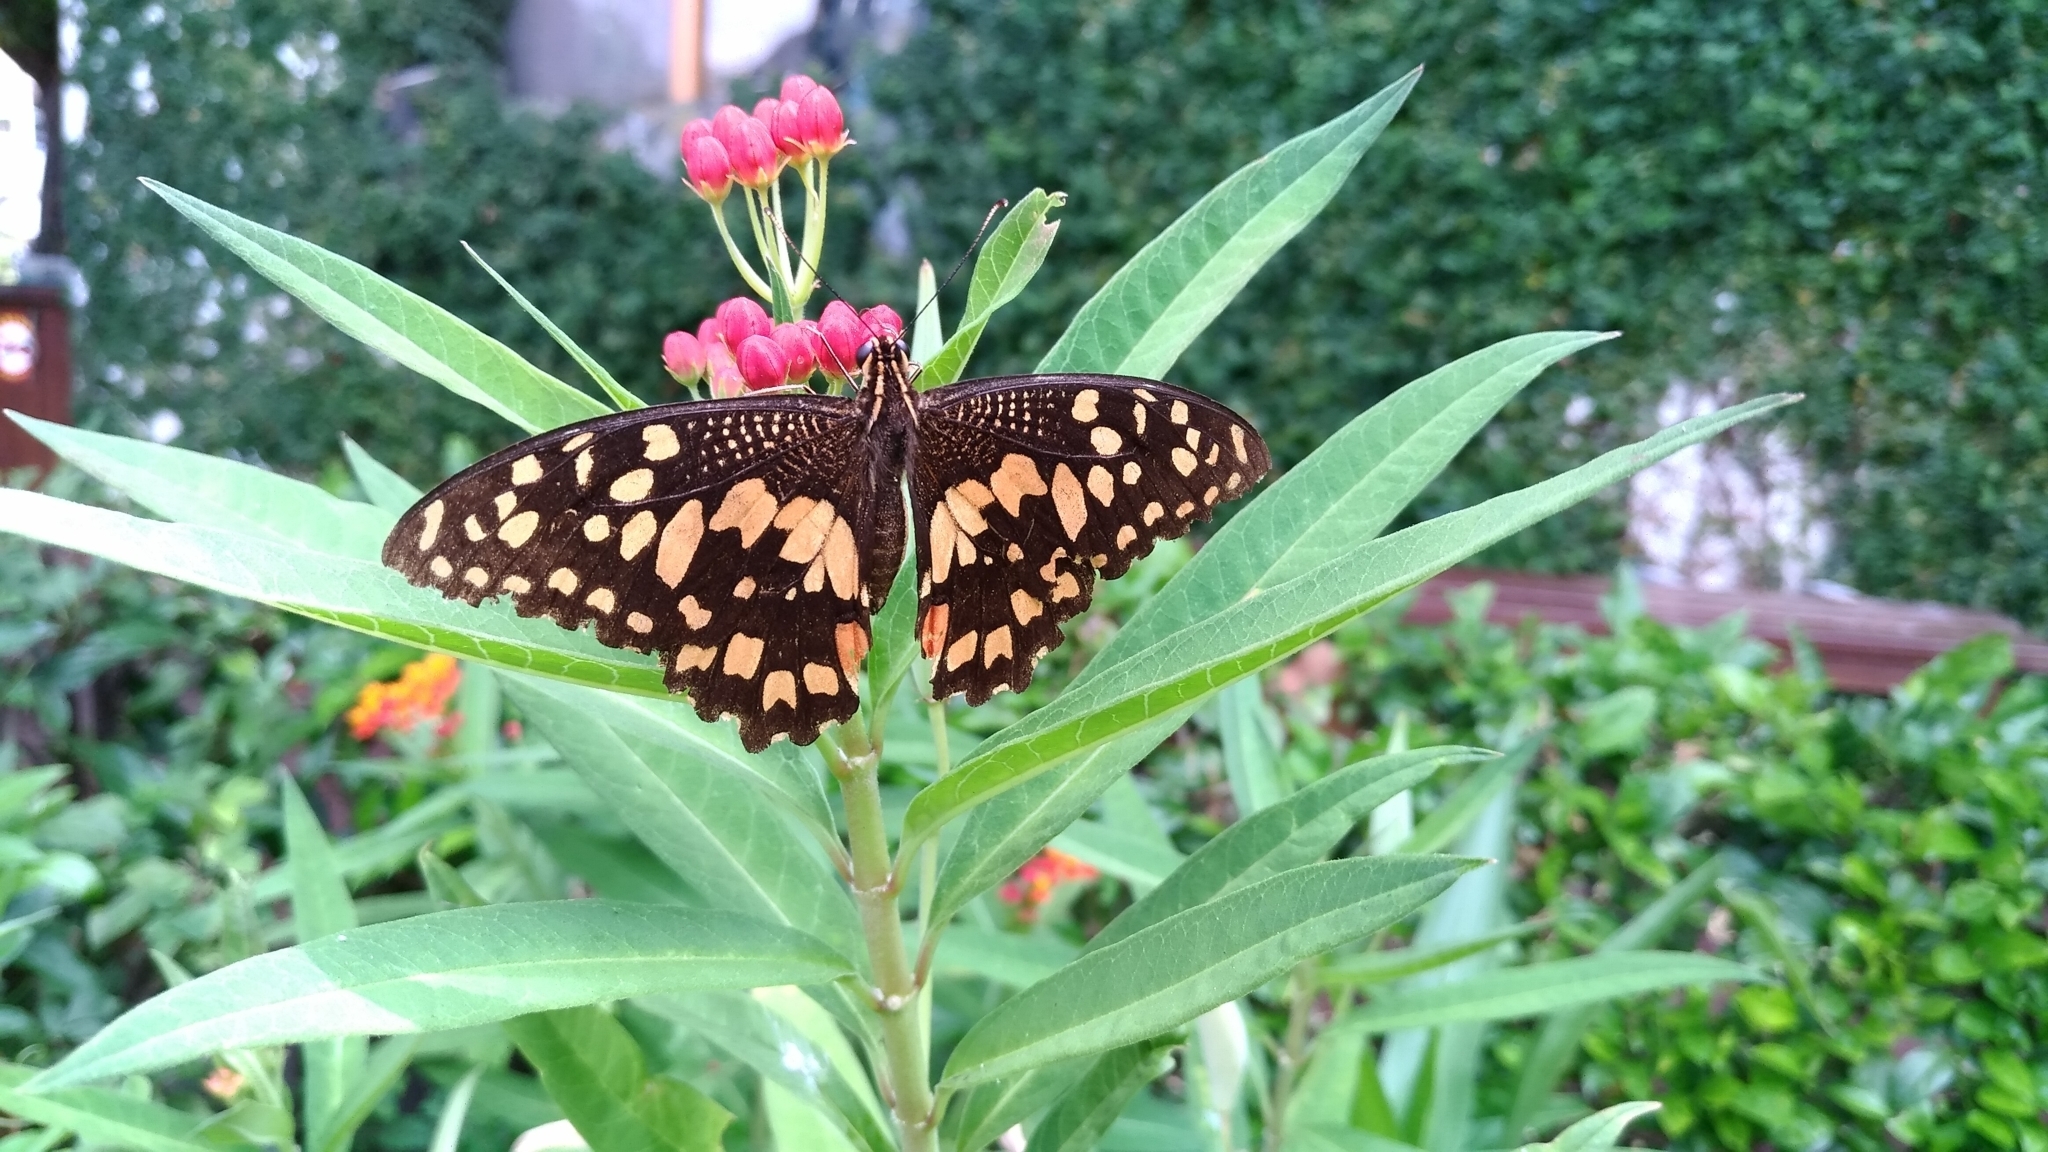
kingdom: Animalia
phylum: Arthropoda
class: Insecta
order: Lepidoptera
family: Papilionidae
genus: Papilio
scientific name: Papilio demoleus
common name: Lime butterfly
